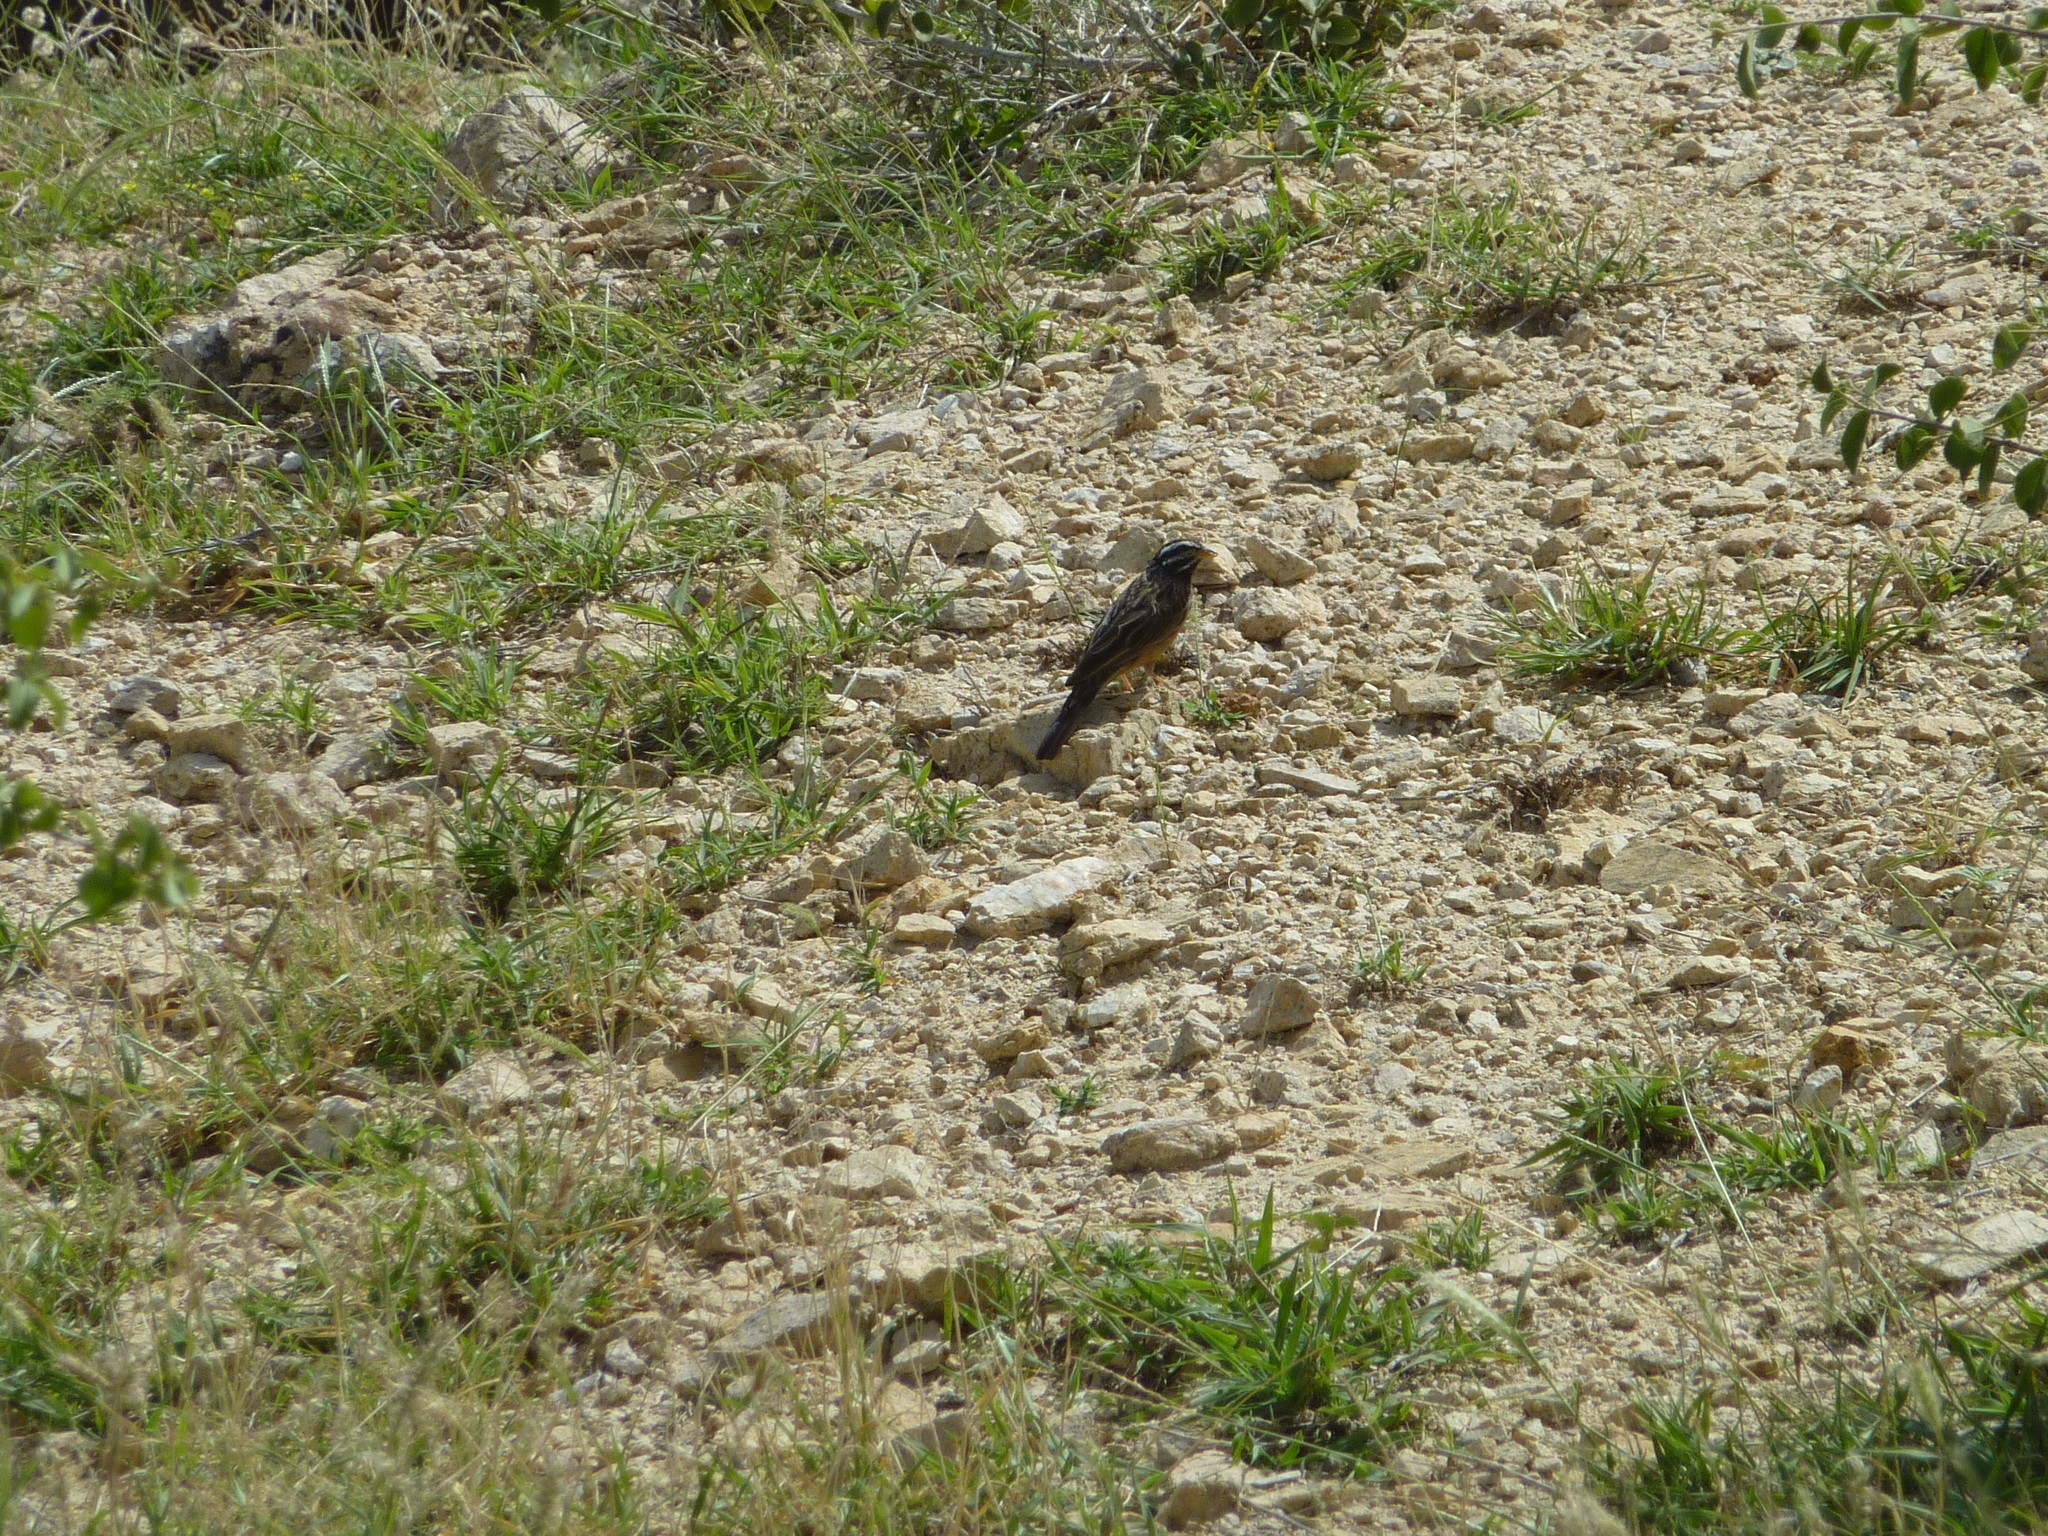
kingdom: Animalia
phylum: Chordata
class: Aves
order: Passeriformes
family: Emberizidae
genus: Emberiza
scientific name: Emberiza tahapisi
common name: Cinnamon-breasted bunting
